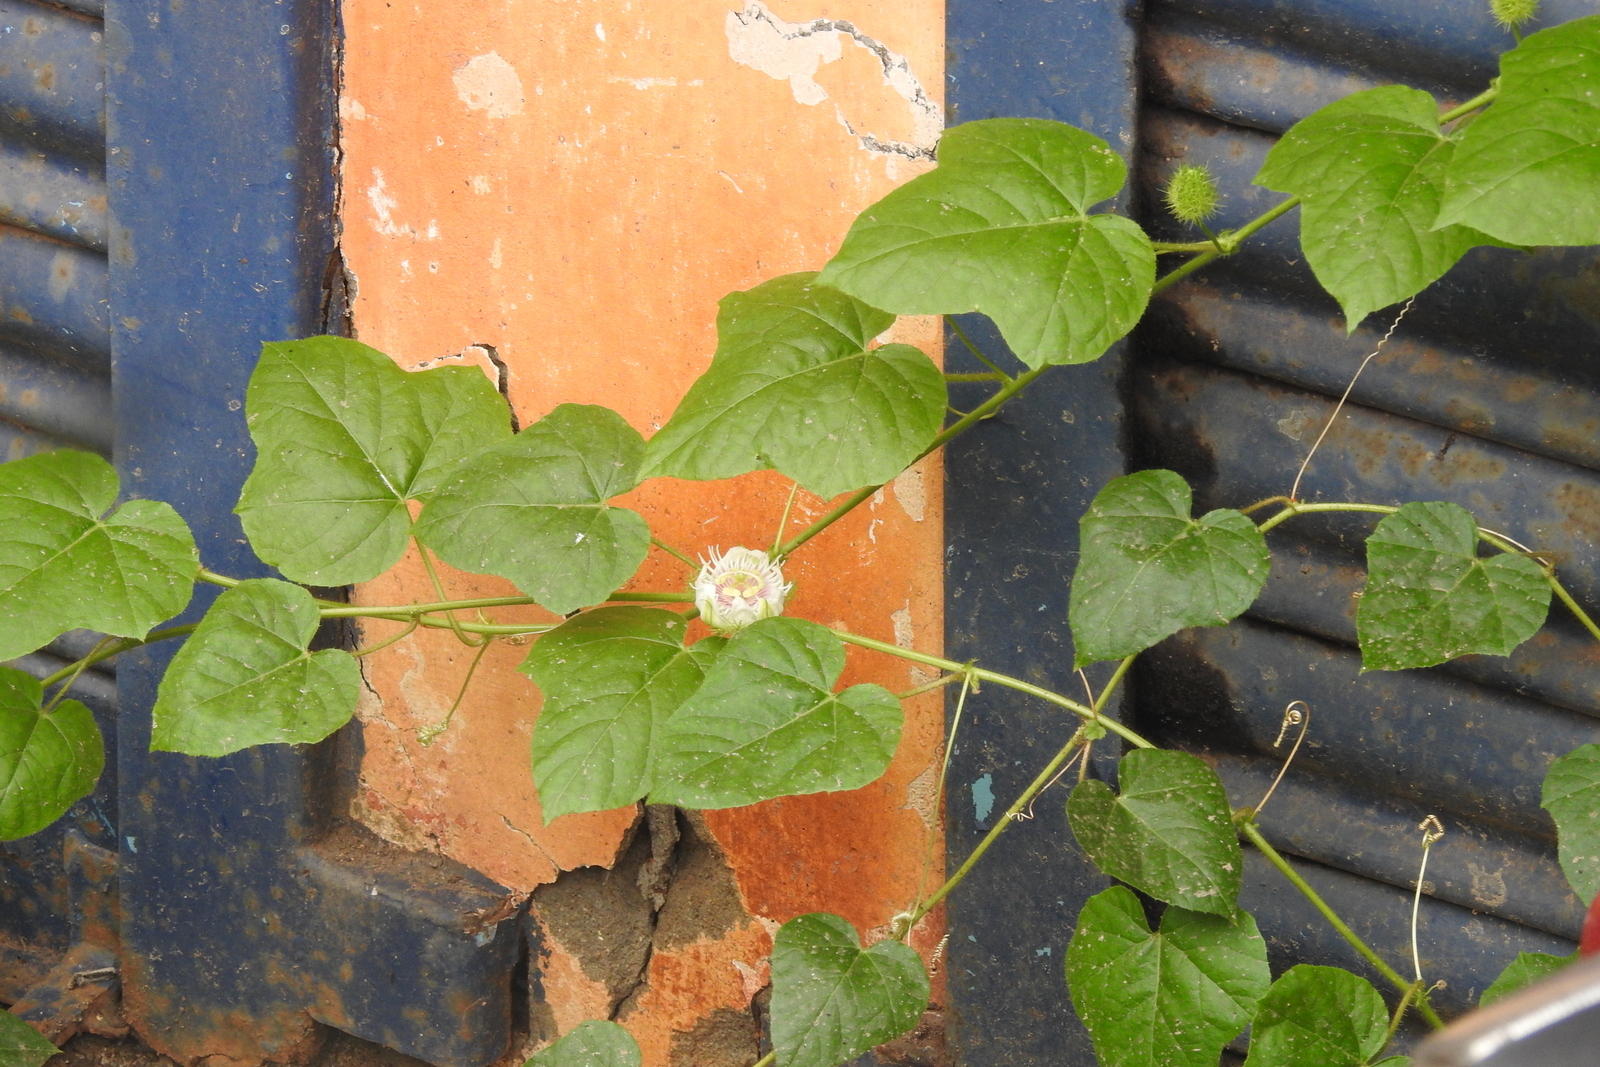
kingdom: Plantae
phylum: Tracheophyta
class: Magnoliopsida
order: Malpighiales
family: Passifloraceae
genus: Passiflora
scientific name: Passiflora vesicaria
